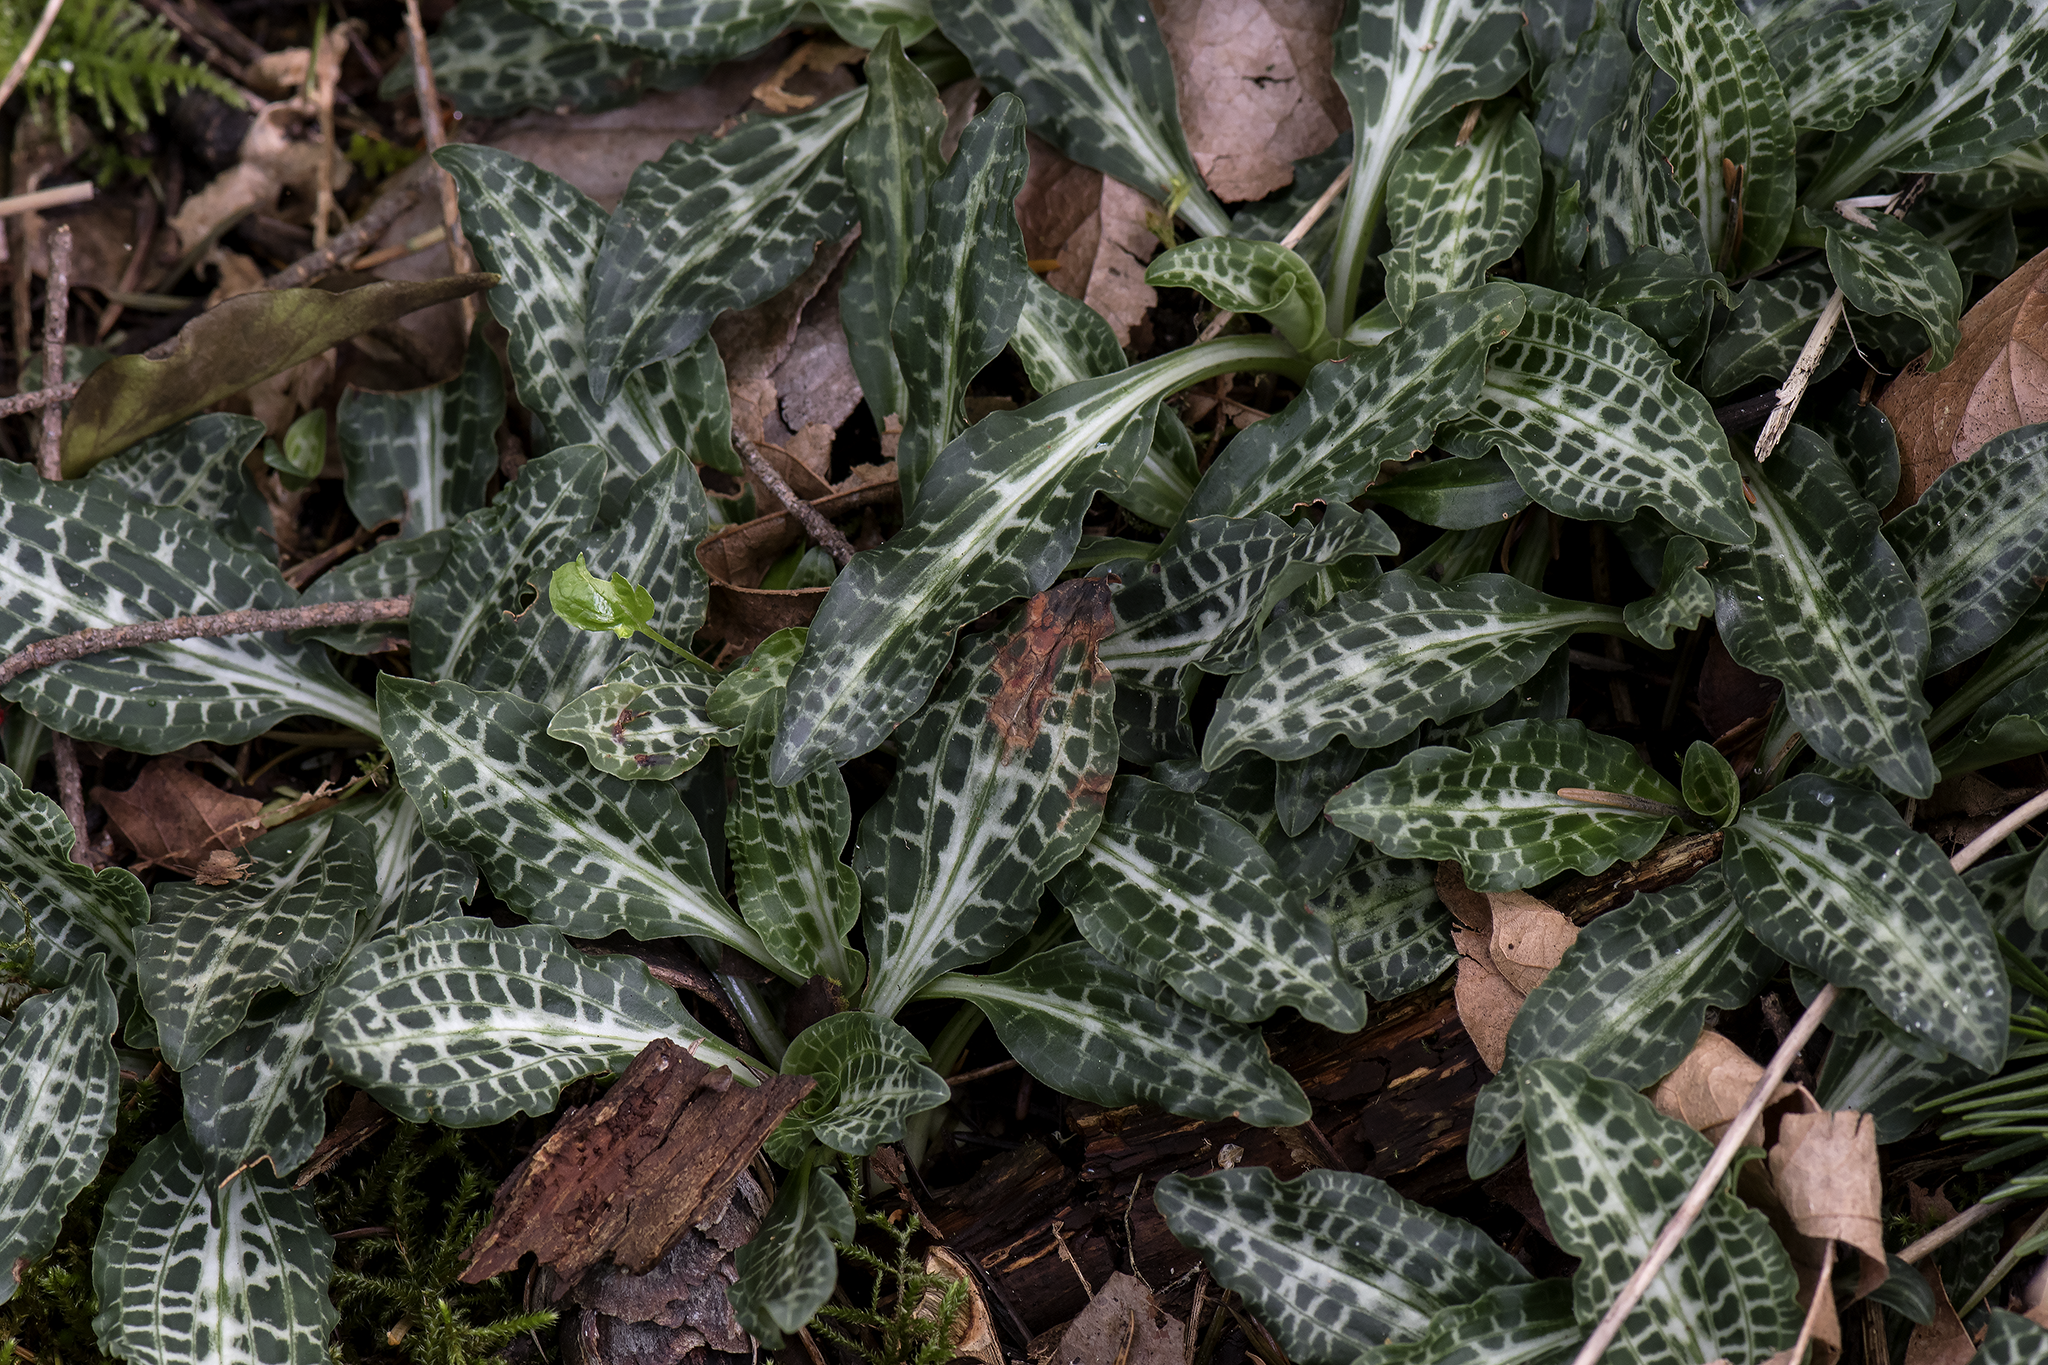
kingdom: Plantae
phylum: Tracheophyta
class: Liliopsida
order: Asparagales
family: Orchidaceae
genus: Goodyera
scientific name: Goodyera oblongifolia
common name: Giant rattlesnake-plantain
